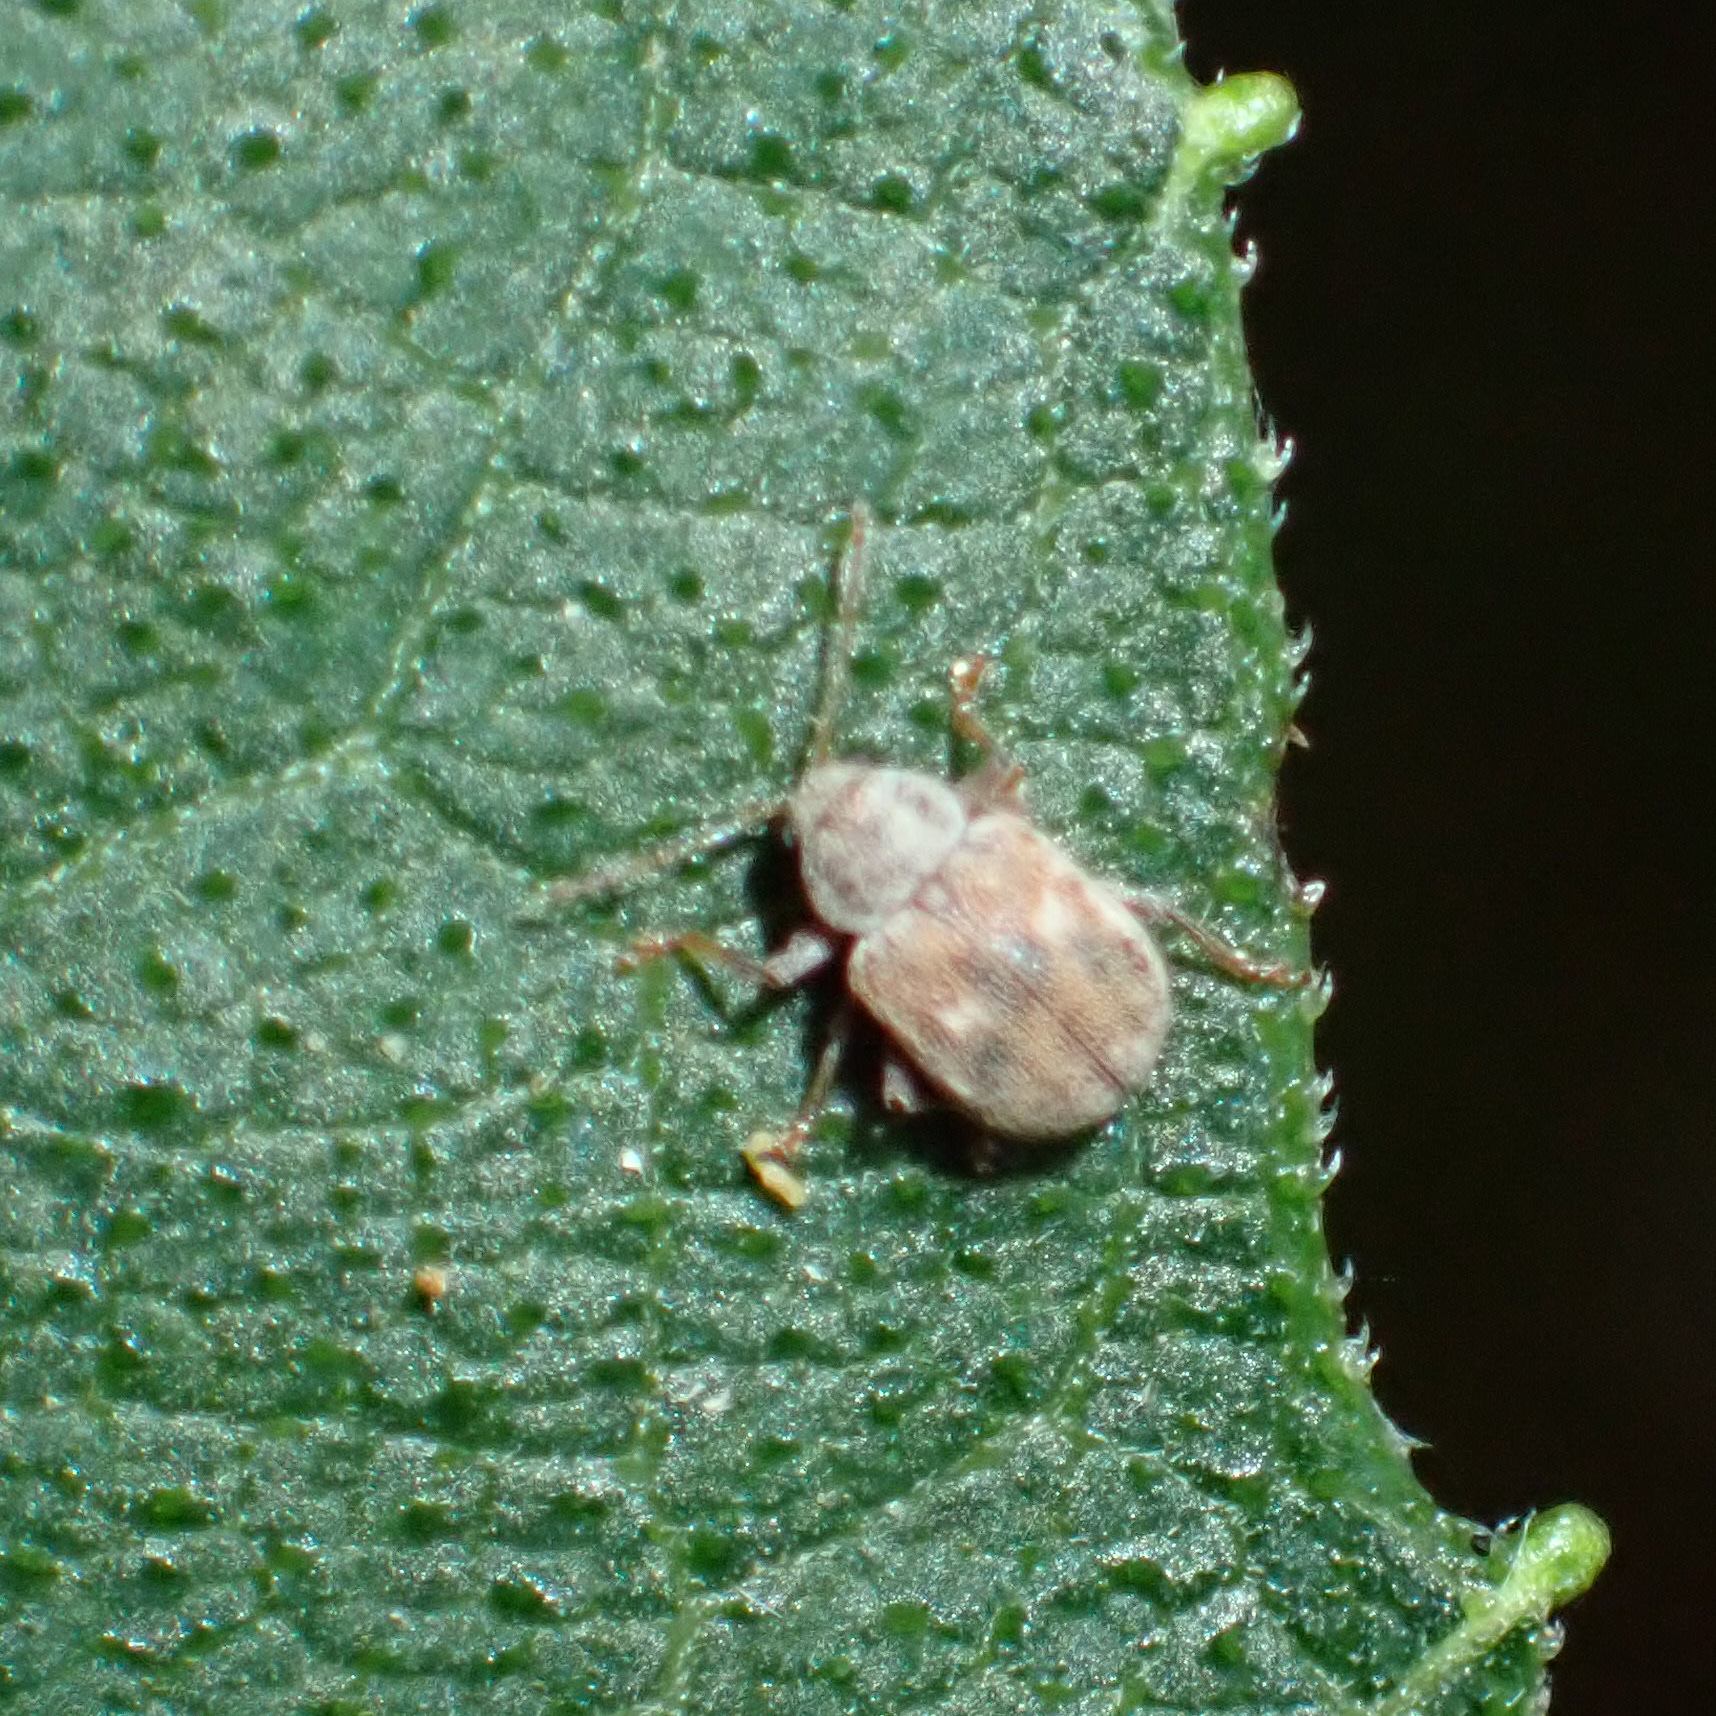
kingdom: Animalia
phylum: Arthropoda
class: Insecta
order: Coleoptera
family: Chrysomelidae
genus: Demotina
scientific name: Demotina modesta
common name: Leaf beetle
